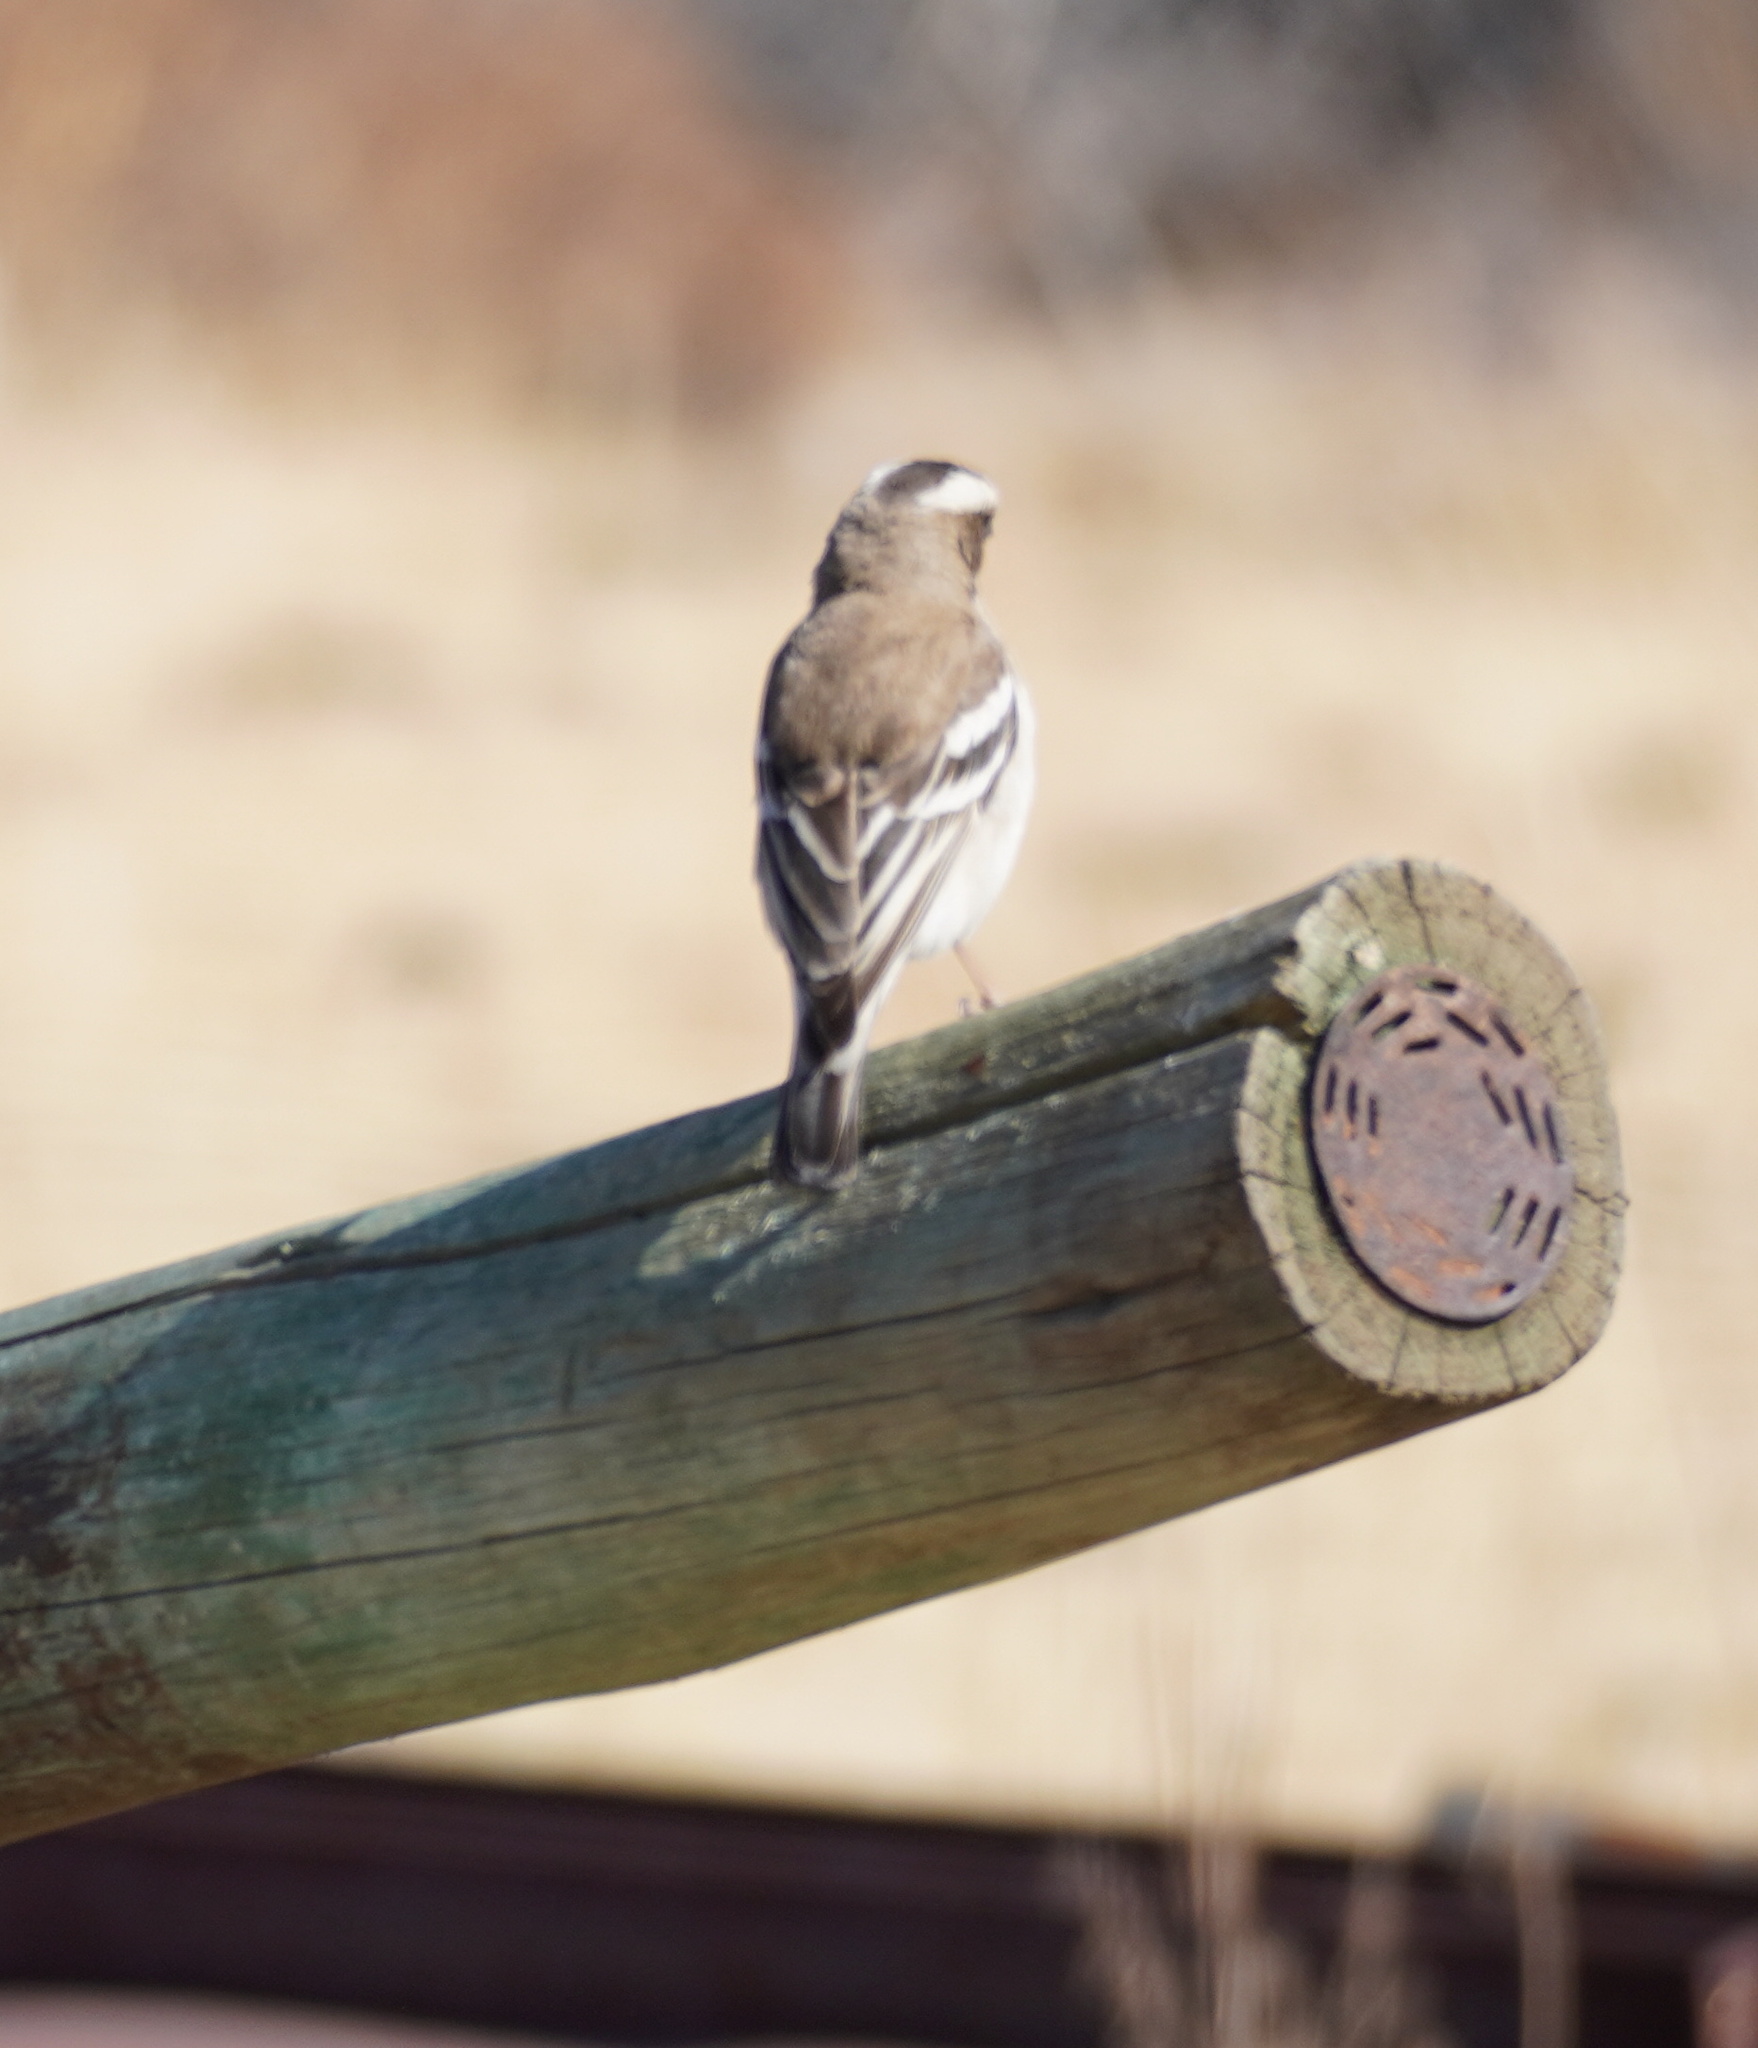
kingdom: Animalia
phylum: Chordata
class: Aves
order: Passeriformes
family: Passeridae
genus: Plocepasser
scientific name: Plocepasser mahali
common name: White-browed sparrow-weaver
